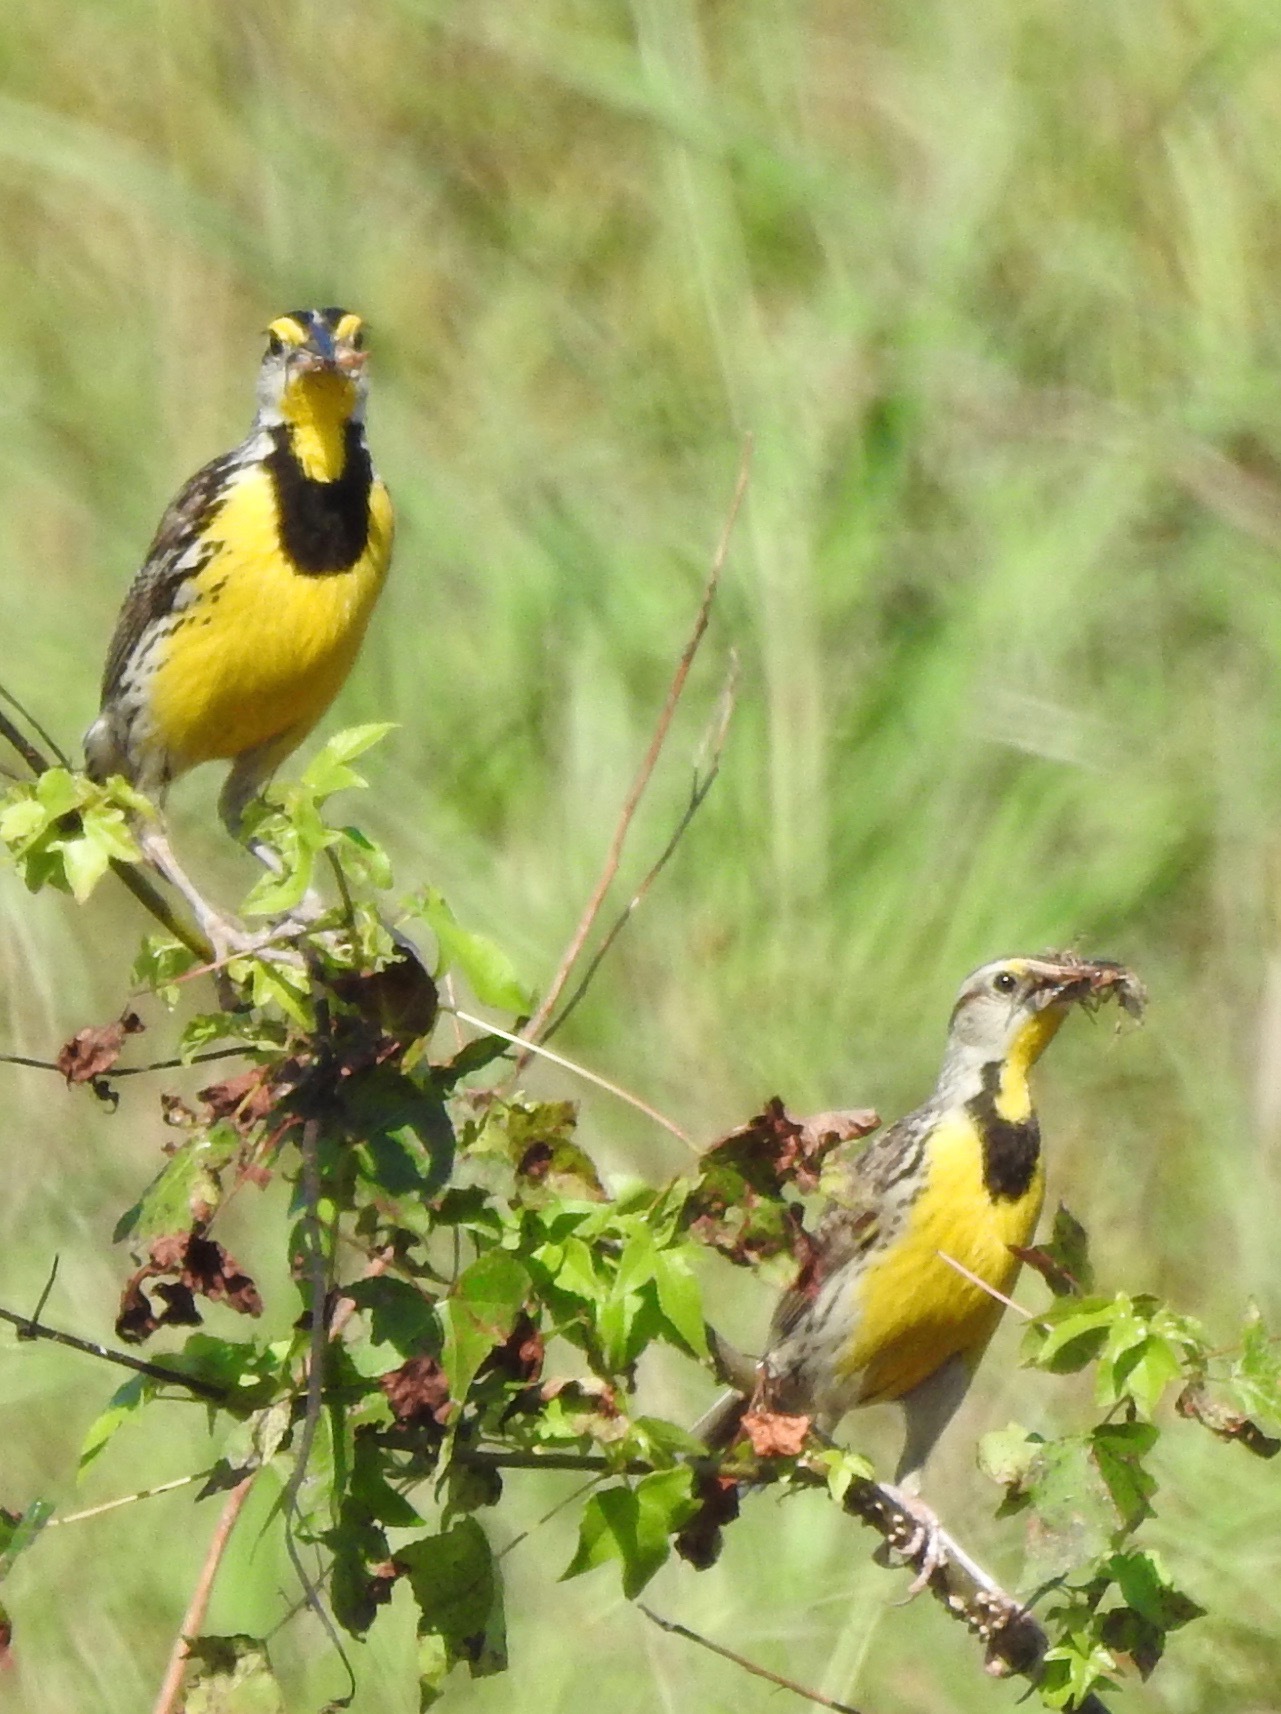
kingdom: Animalia
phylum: Chordata
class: Aves
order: Passeriformes
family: Icteridae
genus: Sturnella
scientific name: Sturnella magna
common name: Eastern meadowlark
